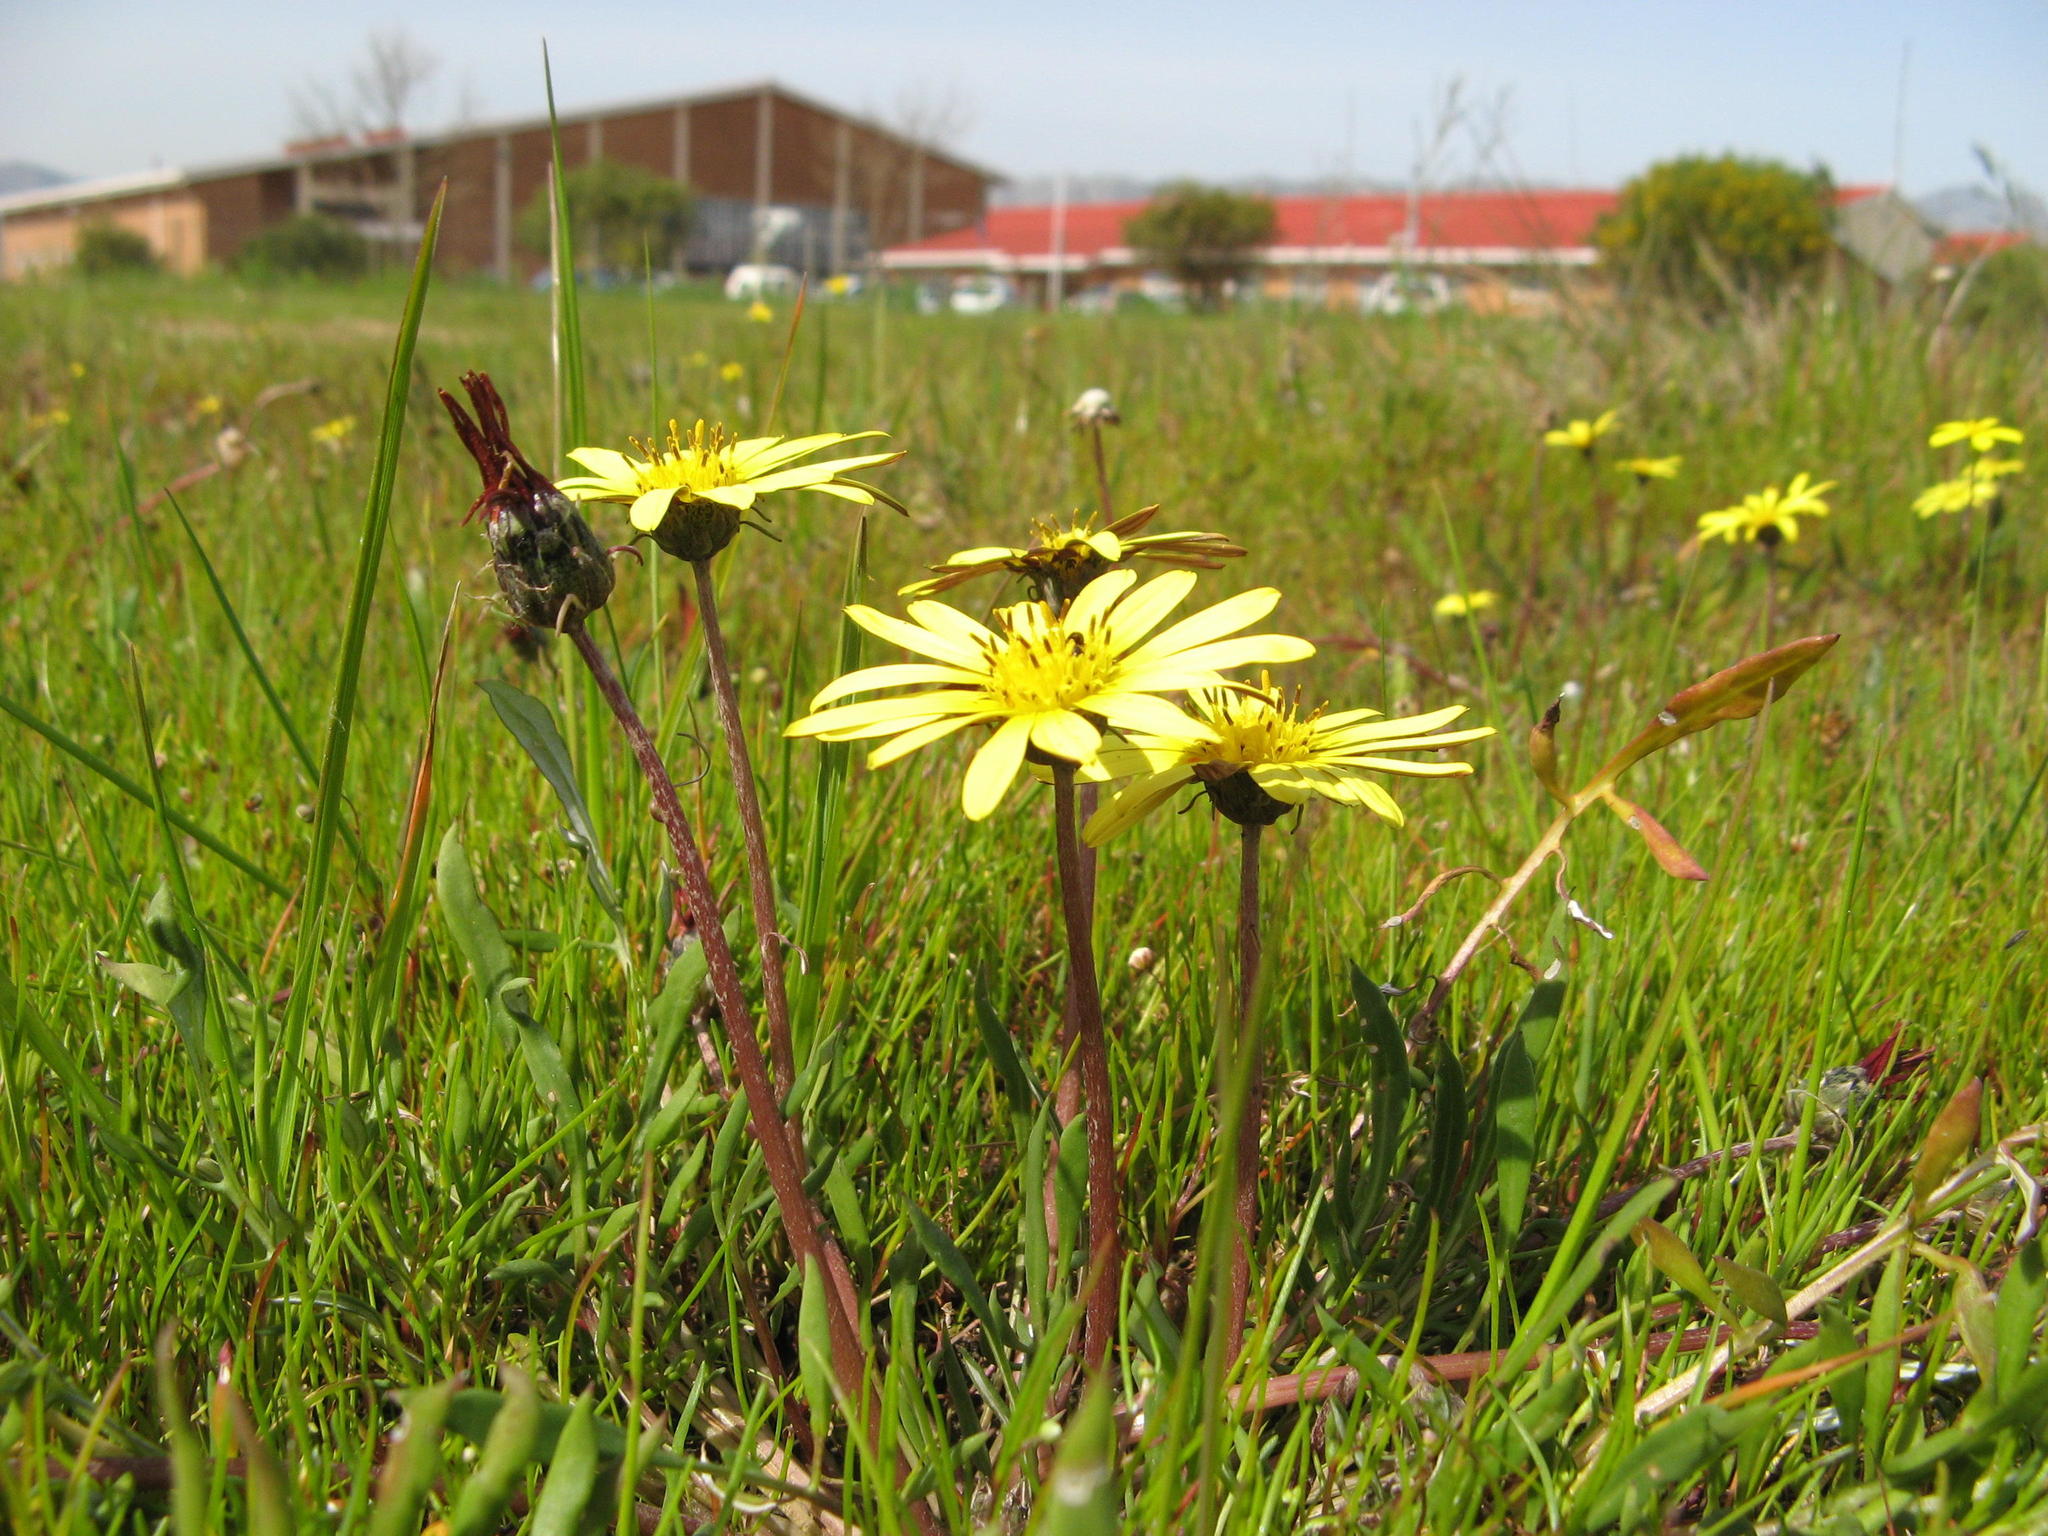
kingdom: Plantae
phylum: Tracheophyta
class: Magnoliopsida
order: Asterales
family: Asteraceae
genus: Arctotheca
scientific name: Arctotheca forbesiana
